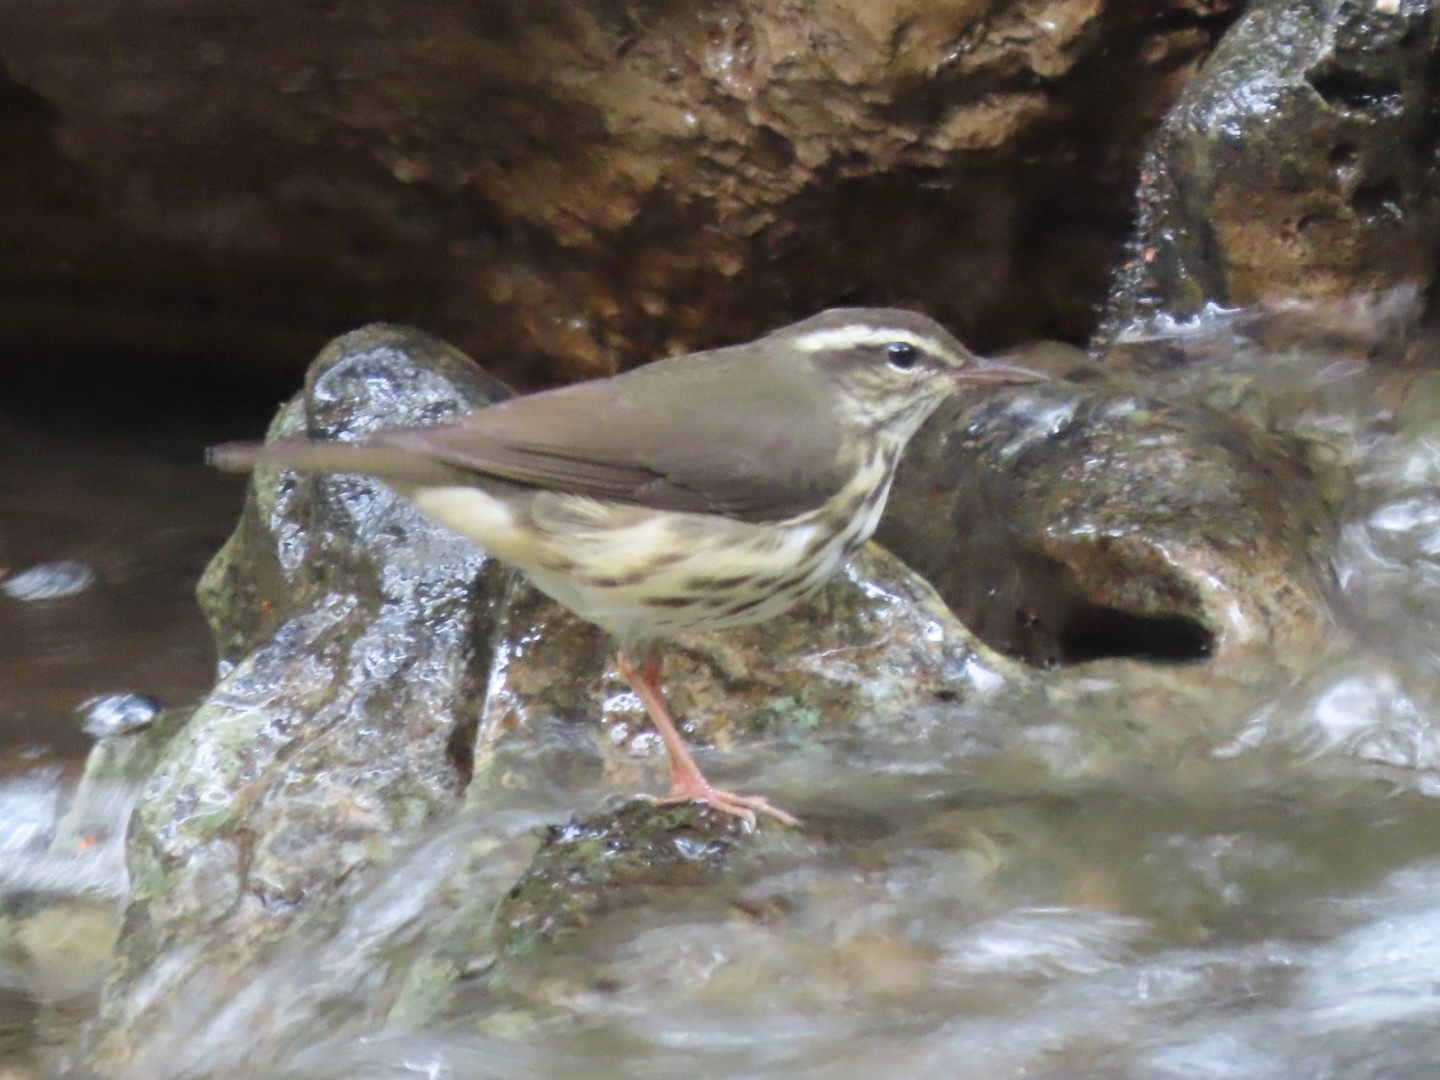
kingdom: Animalia
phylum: Chordata
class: Aves
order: Passeriformes
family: Parulidae
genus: Parkesia
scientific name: Parkesia motacilla
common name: Louisiana waterthrush
